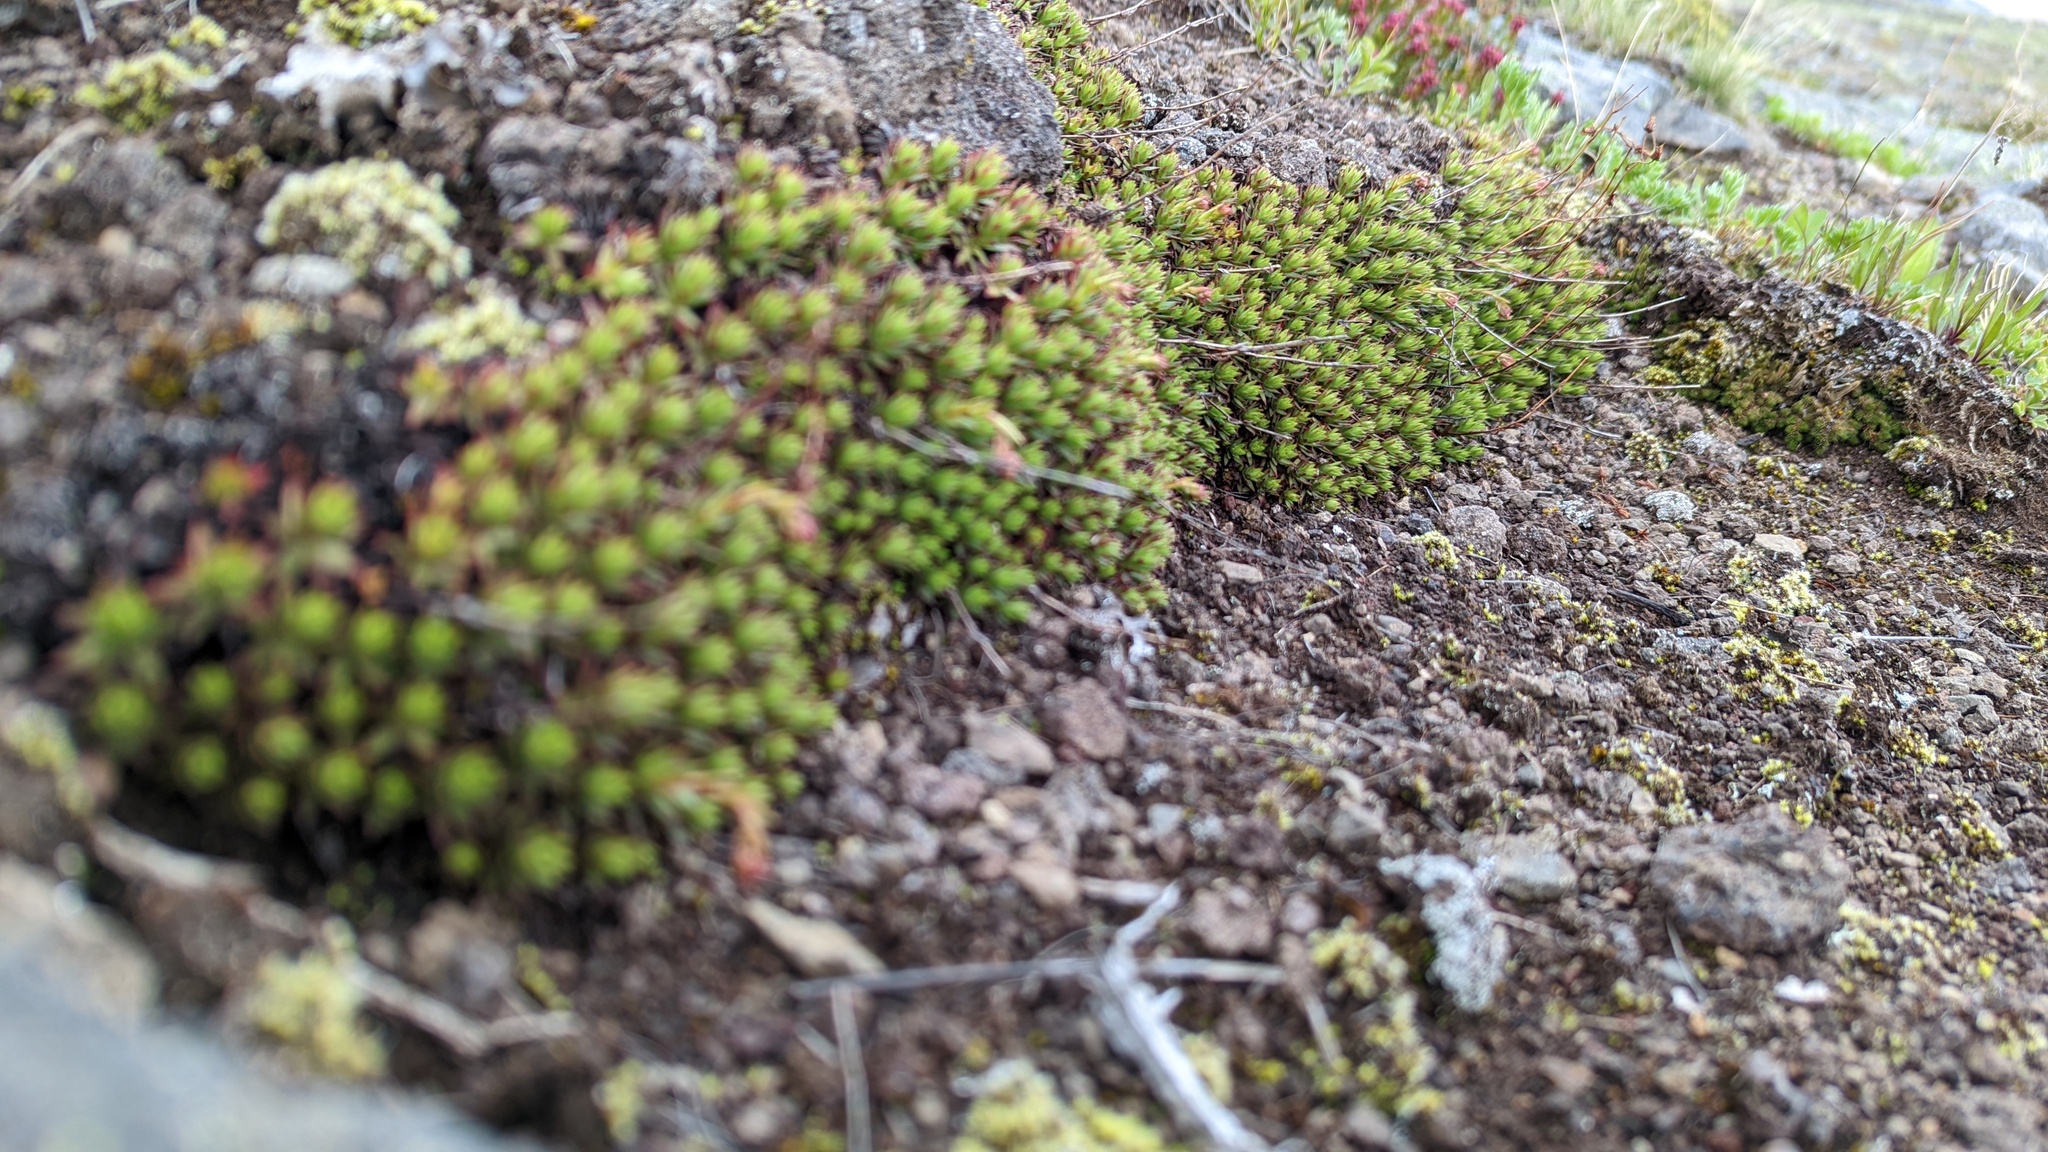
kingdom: Plantae
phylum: Tracheophyta
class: Magnoliopsida
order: Saxifragales
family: Saxifragaceae
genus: Saxifraga
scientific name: Saxifraga bronchialis
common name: Matted saxifrage
